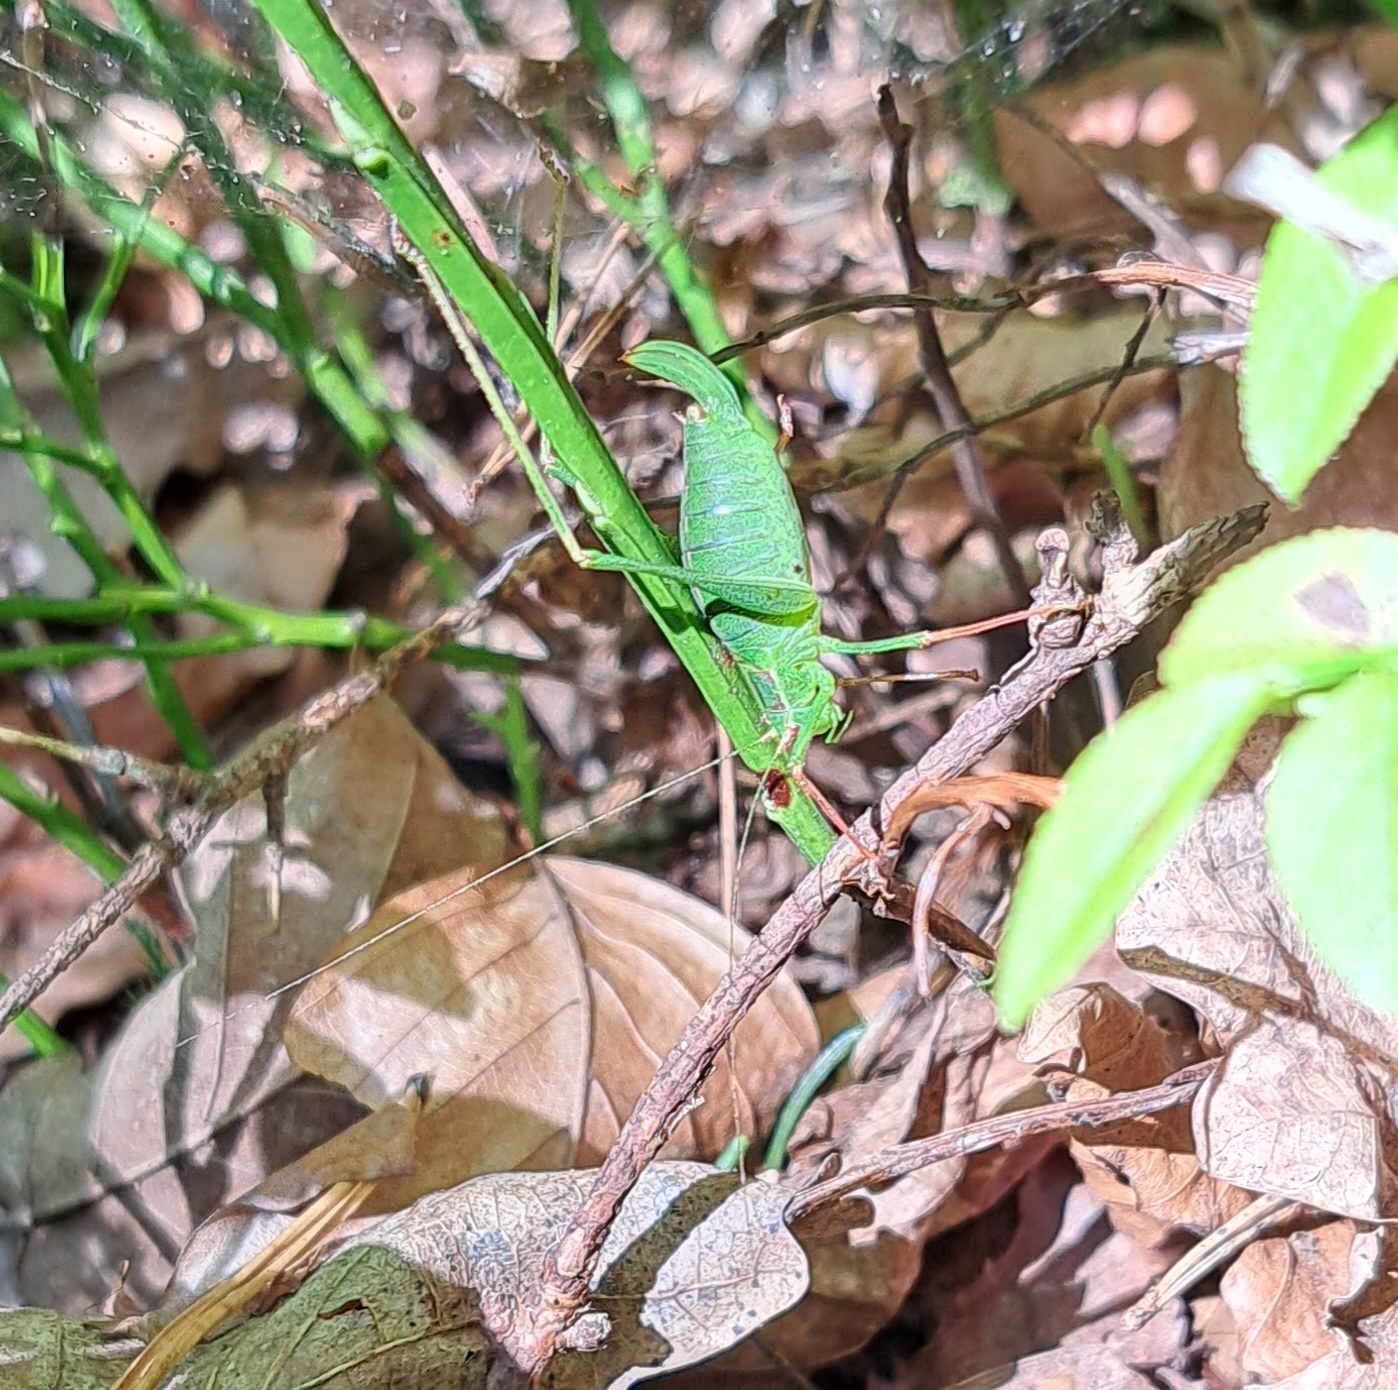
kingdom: Animalia
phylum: Arthropoda
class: Insecta
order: Orthoptera
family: Tettigoniidae
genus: Leptophyes
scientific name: Leptophyes punctatissima
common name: Speckled bush-cricket
